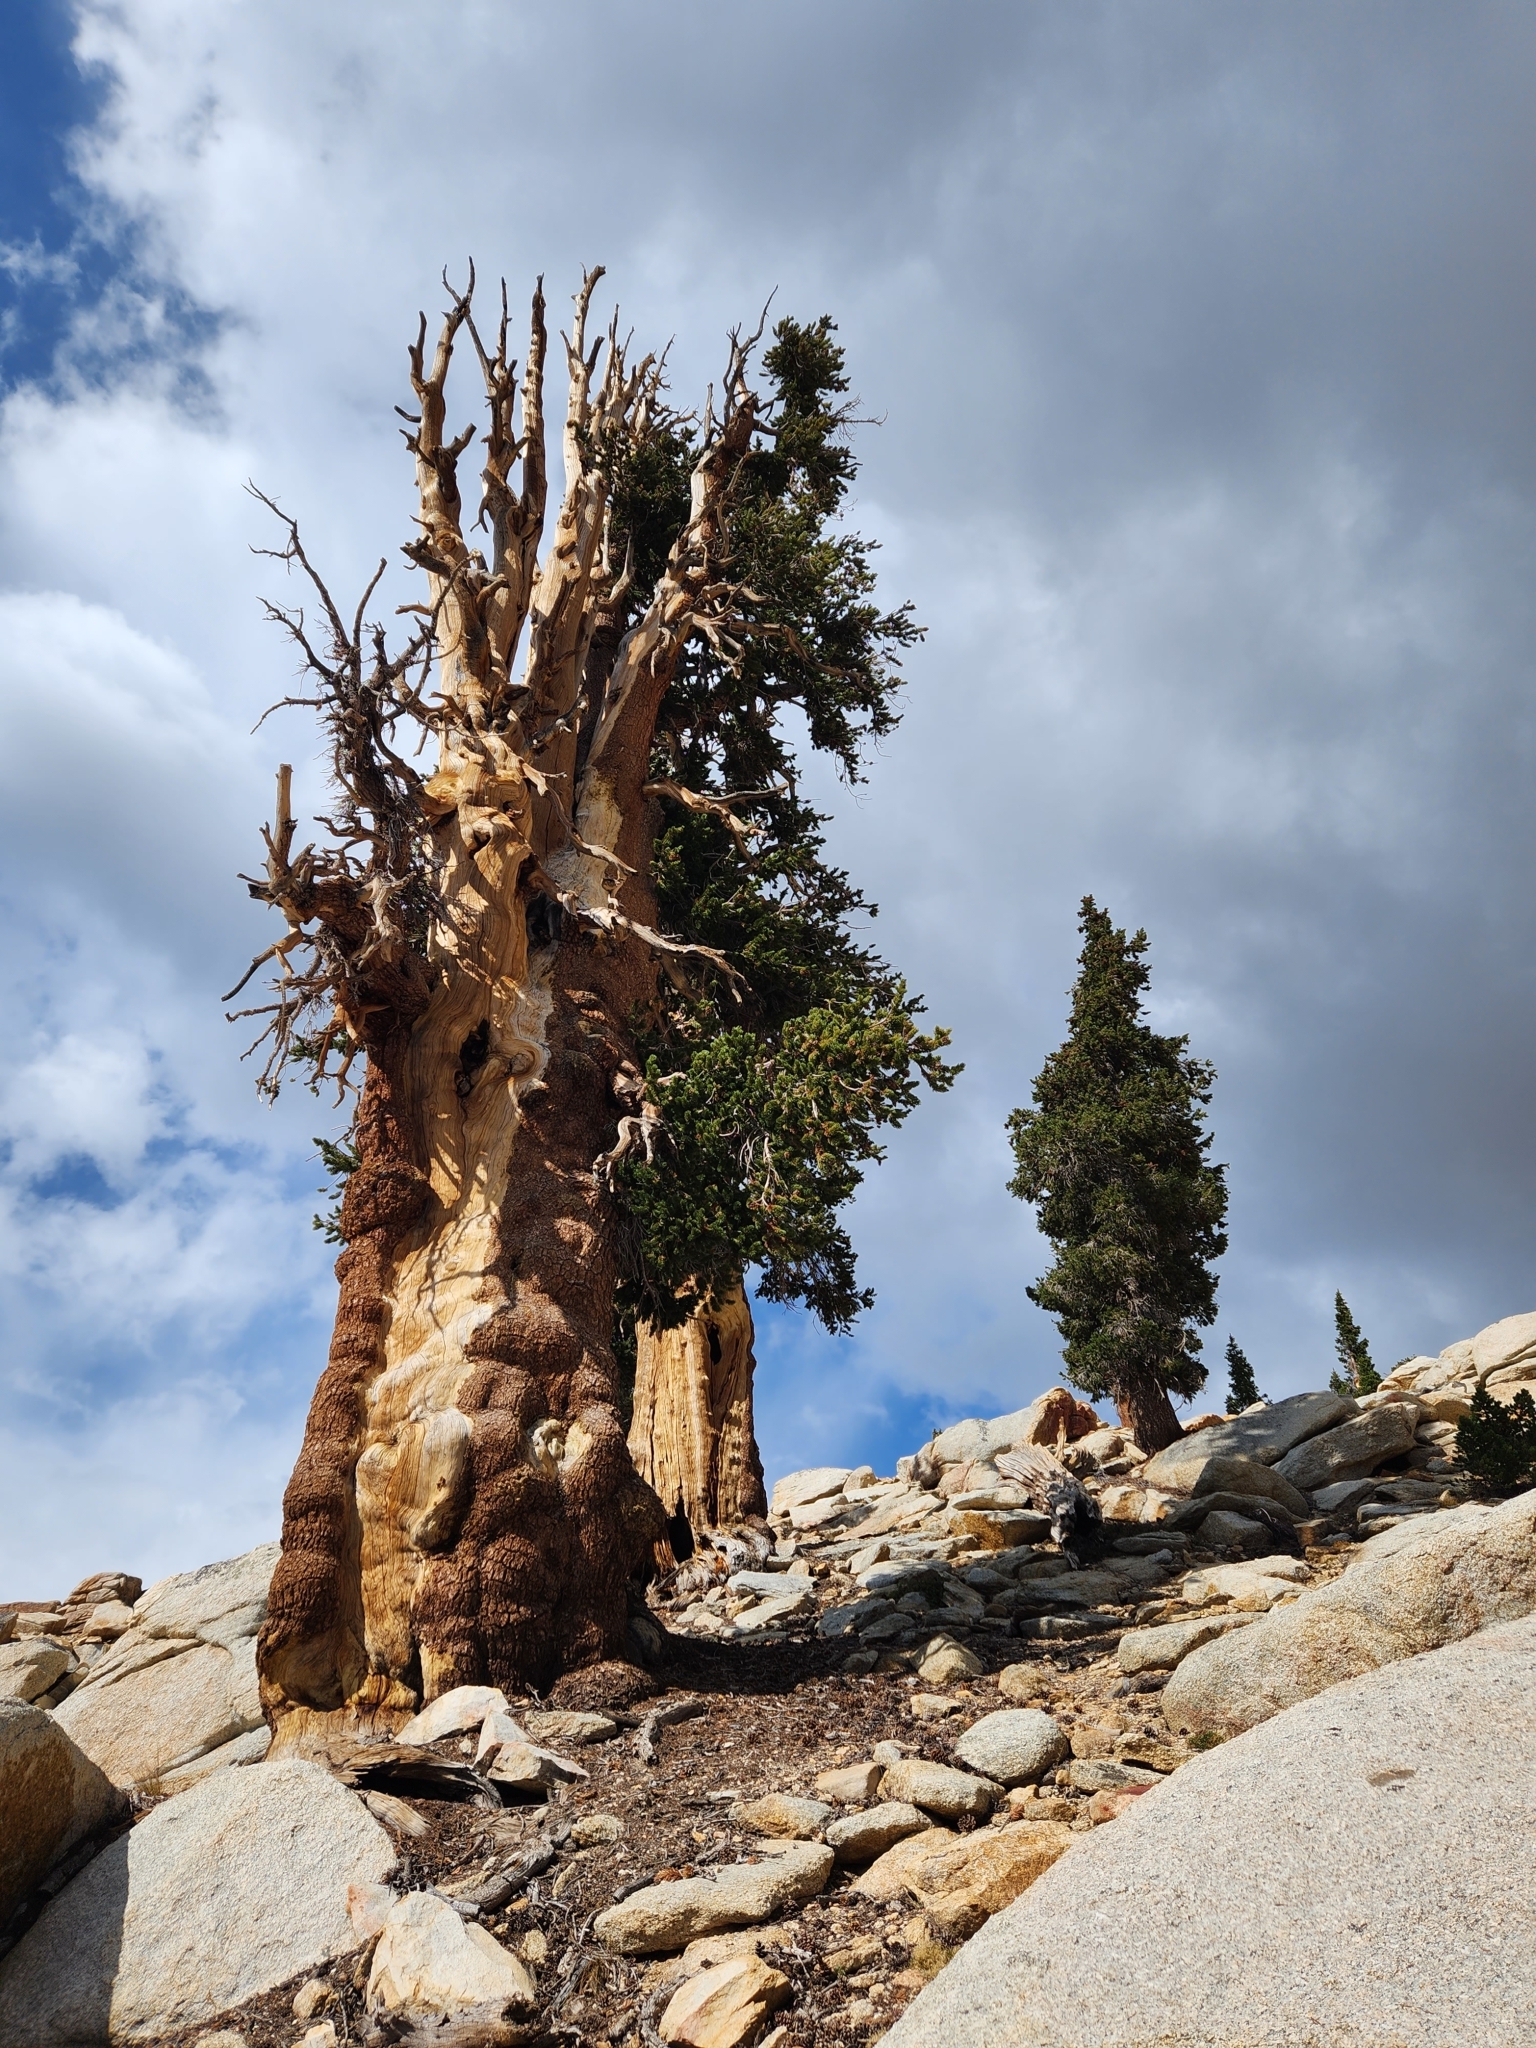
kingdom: Plantae
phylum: Tracheophyta
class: Pinopsida
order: Pinales
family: Pinaceae
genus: Pinus
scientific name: Pinus balfouriana
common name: Foxtail pine
